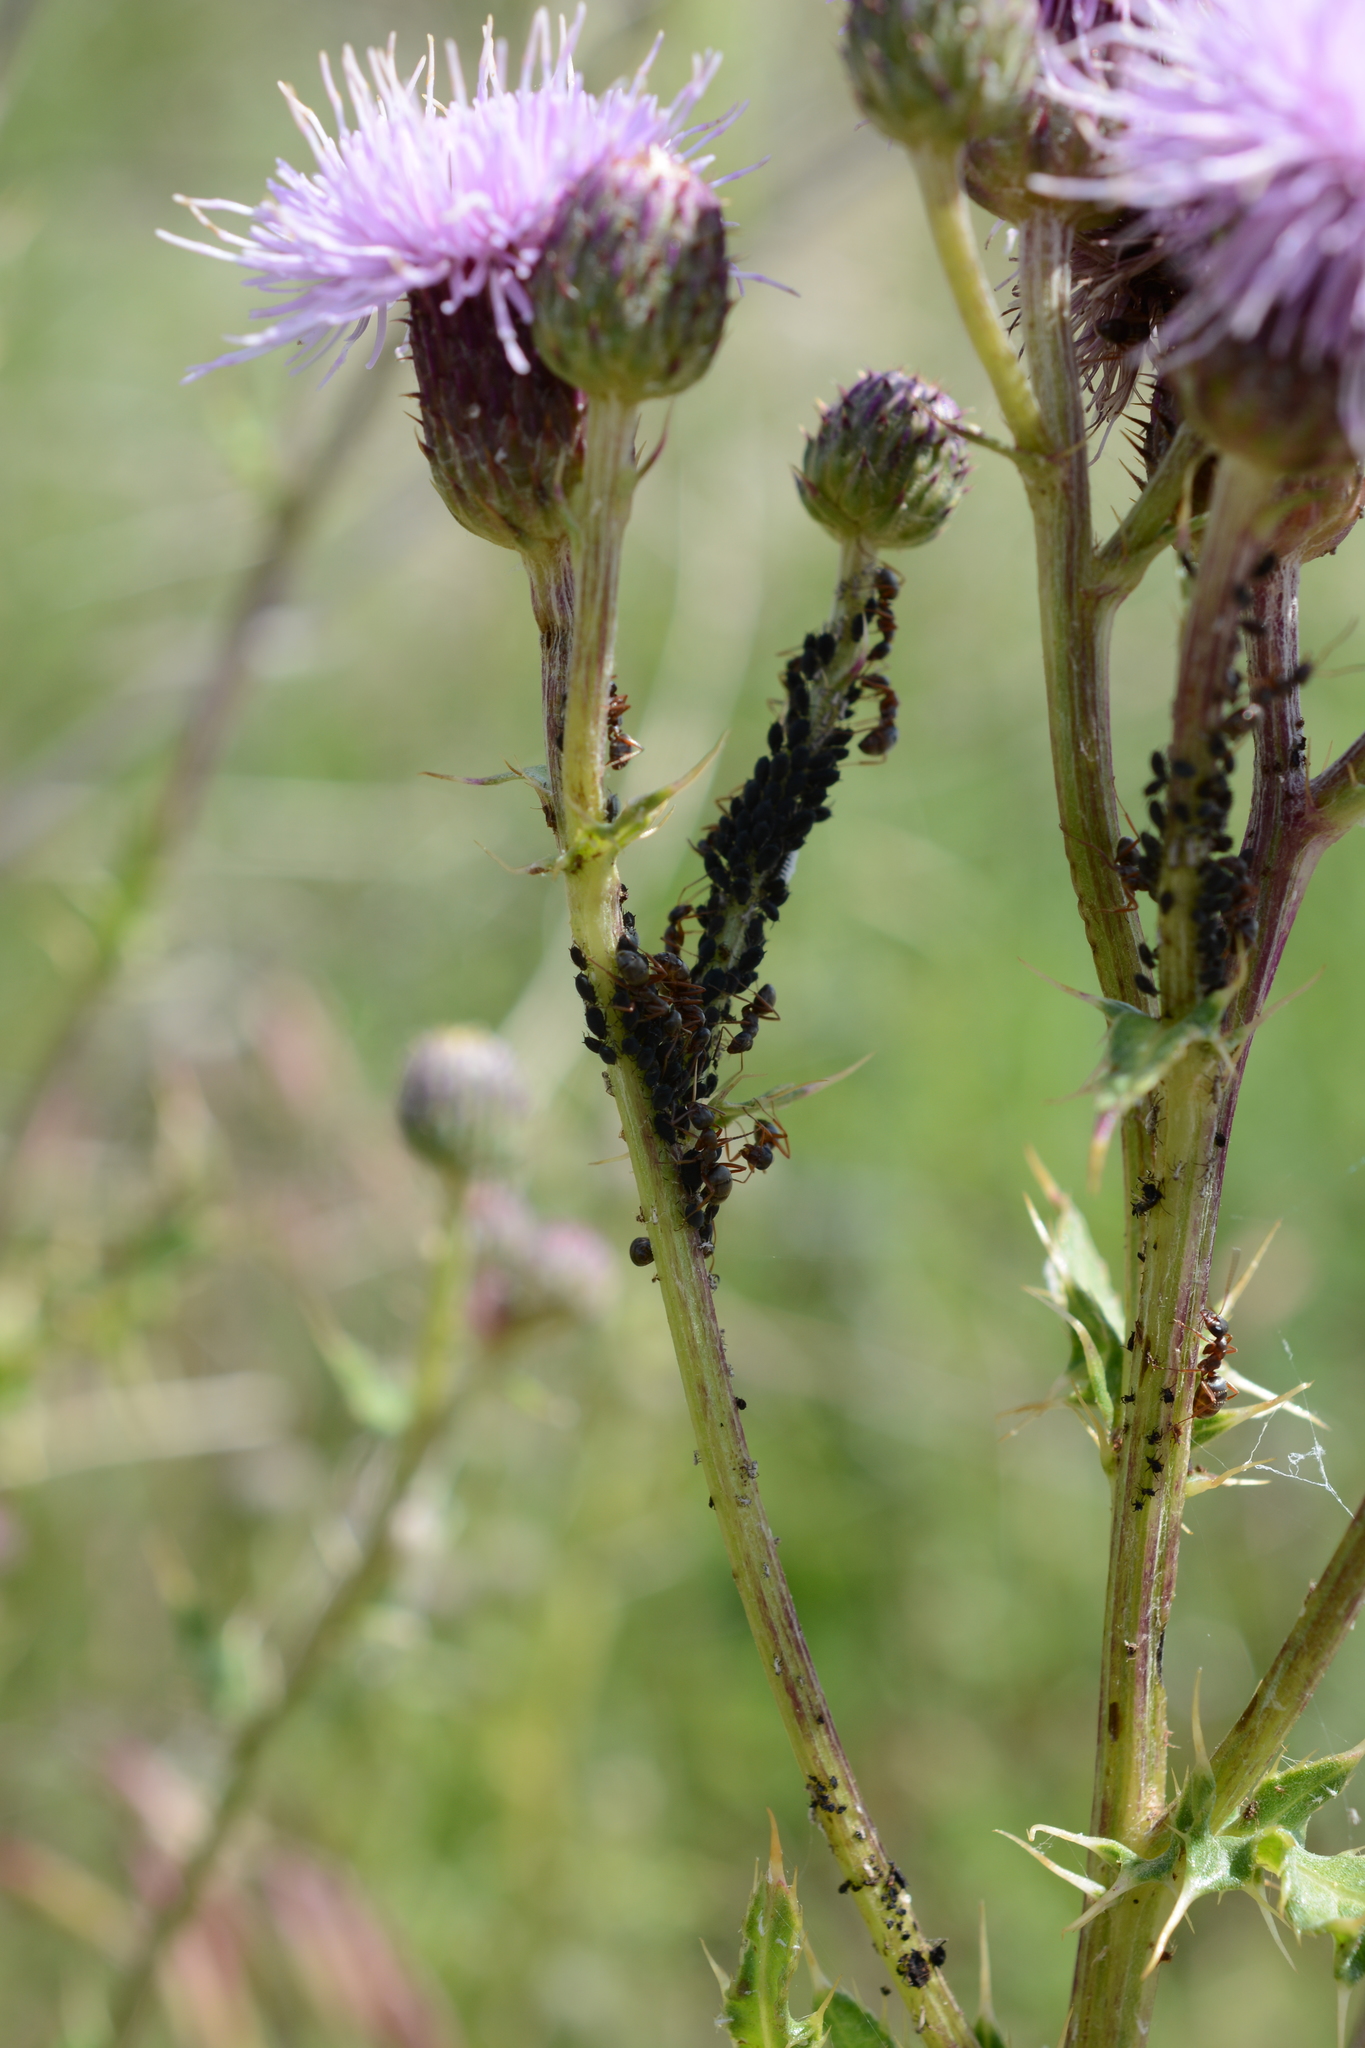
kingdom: Plantae
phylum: Tracheophyta
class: Magnoliopsida
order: Asterales
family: Asteraceae
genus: Cirsium
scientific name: Cirsium arvense
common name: Creeping thistle
